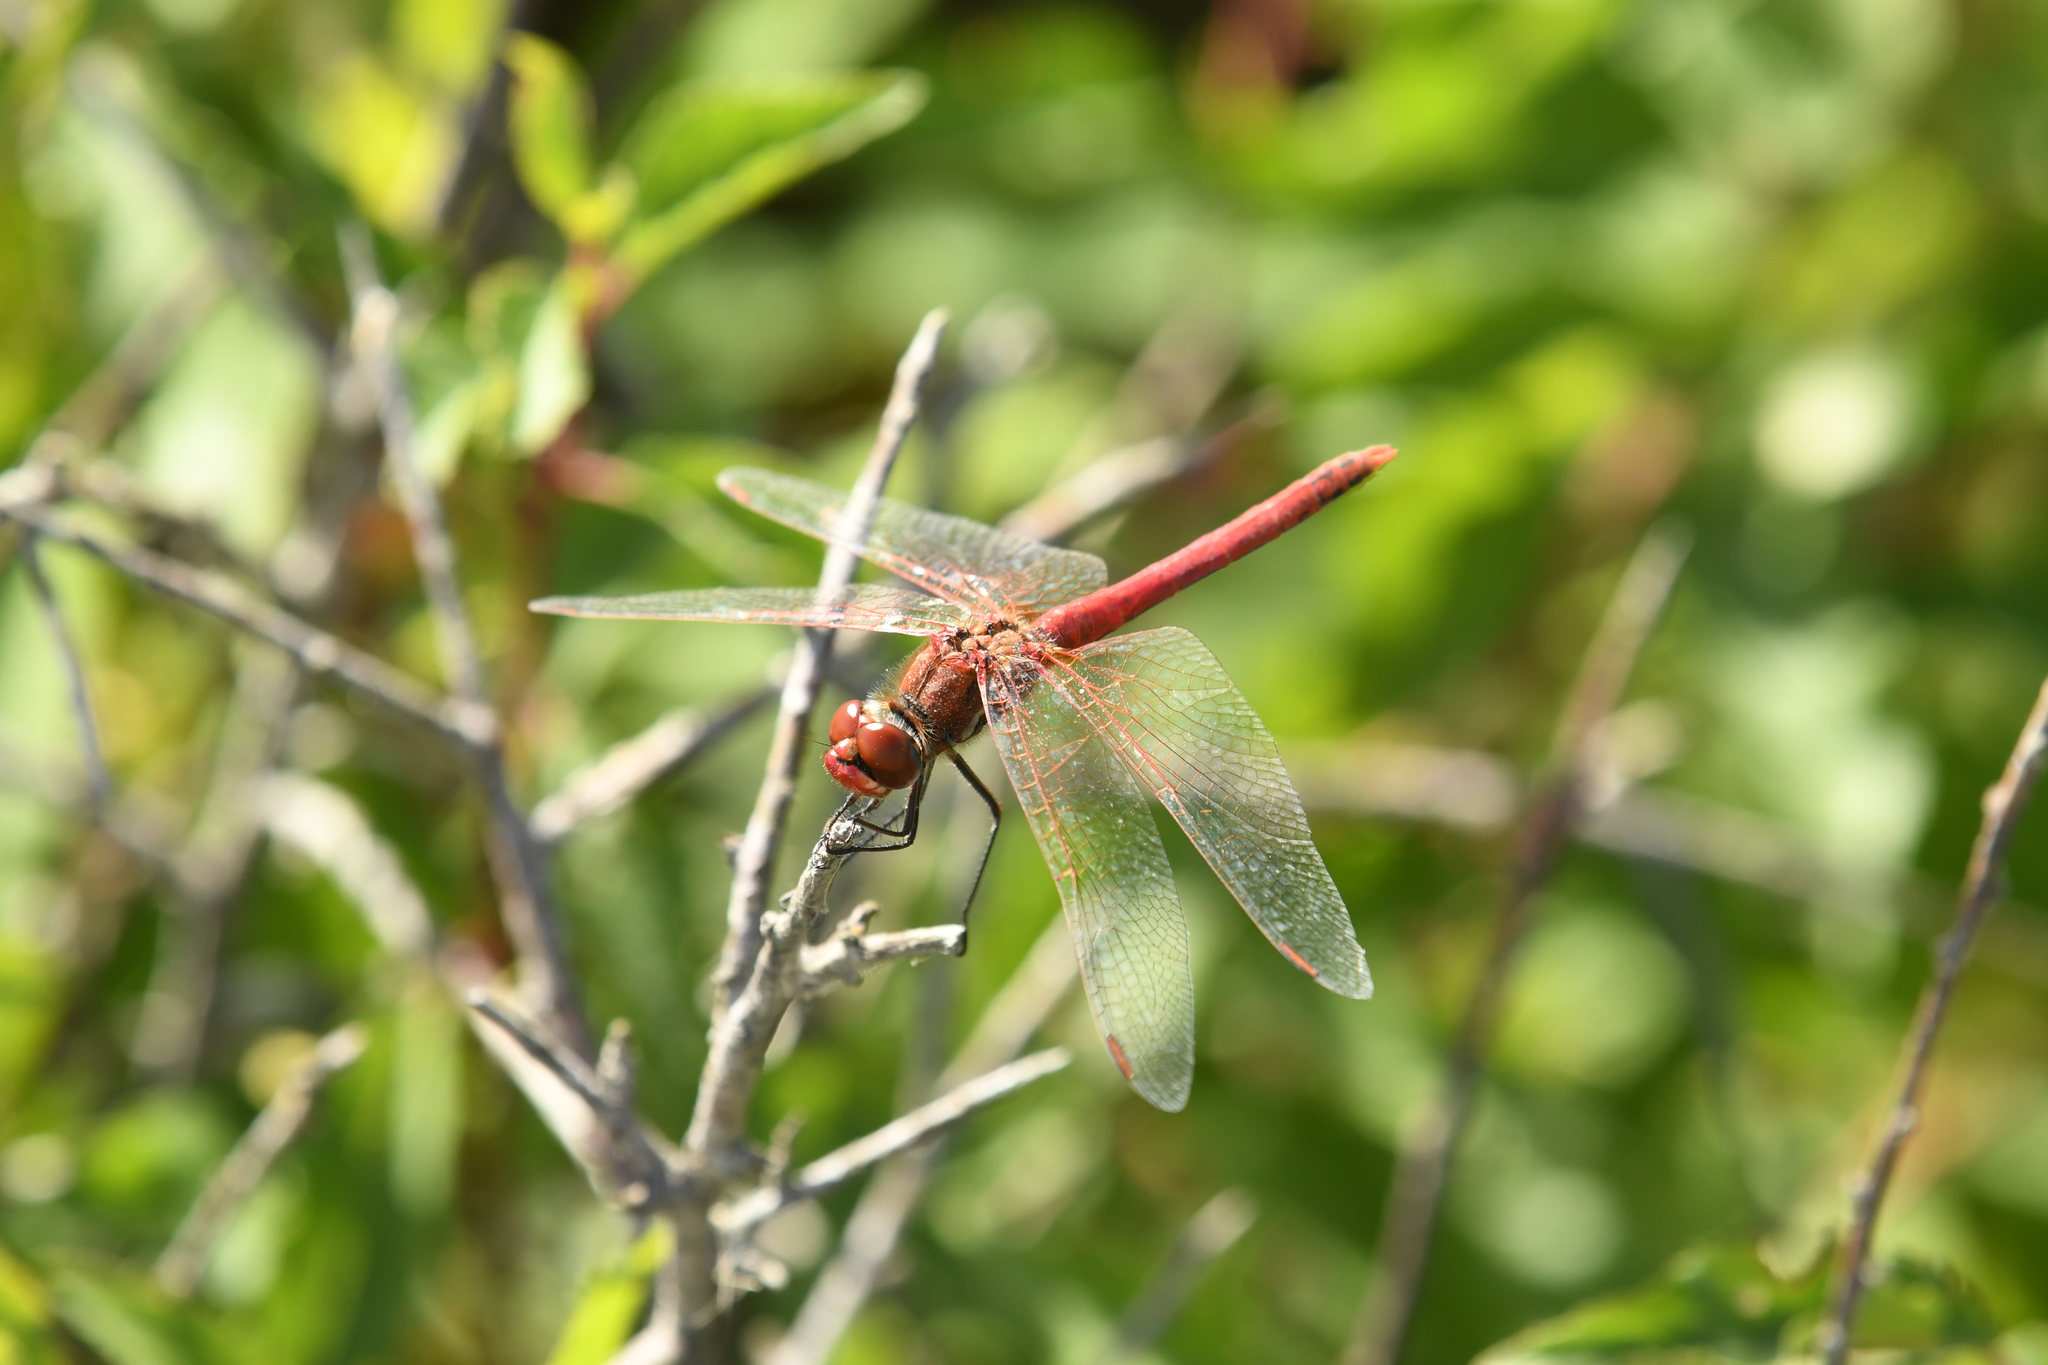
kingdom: Animalia
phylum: Arthropoda
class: Insecta
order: Odonata
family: Libellulidae
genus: Sympetrum
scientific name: Sympetrum fonscolombii
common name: Red-veined darter
